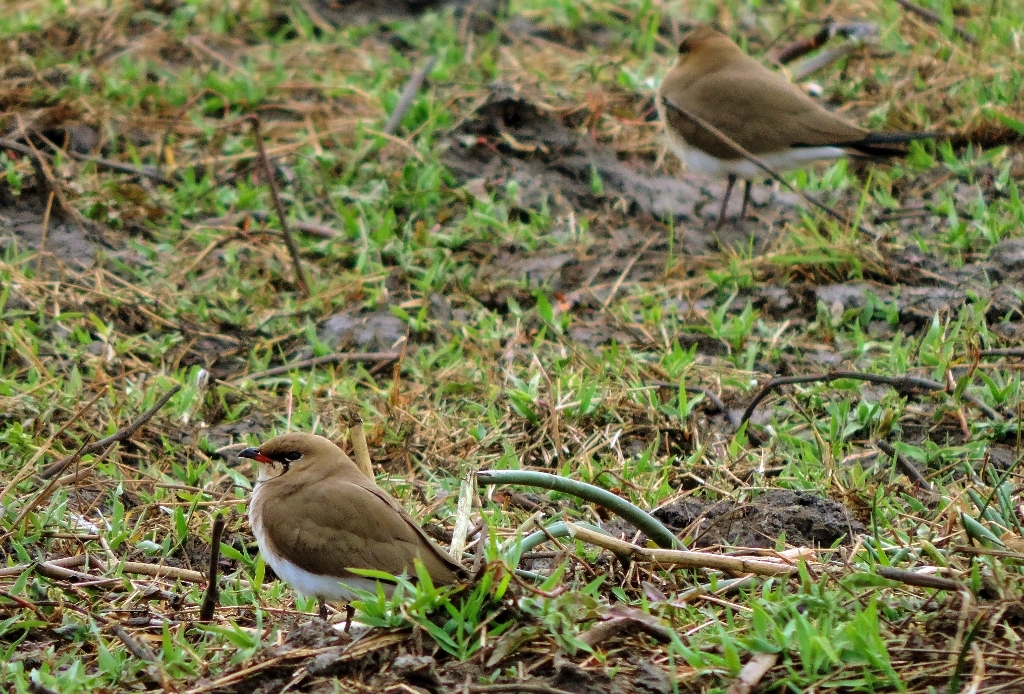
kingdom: Animalia
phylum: Chordata
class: Aves
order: Charadriiformes
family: Glareolidae
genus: Glareola
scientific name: Glareola pratincola
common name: Collared pratincole
